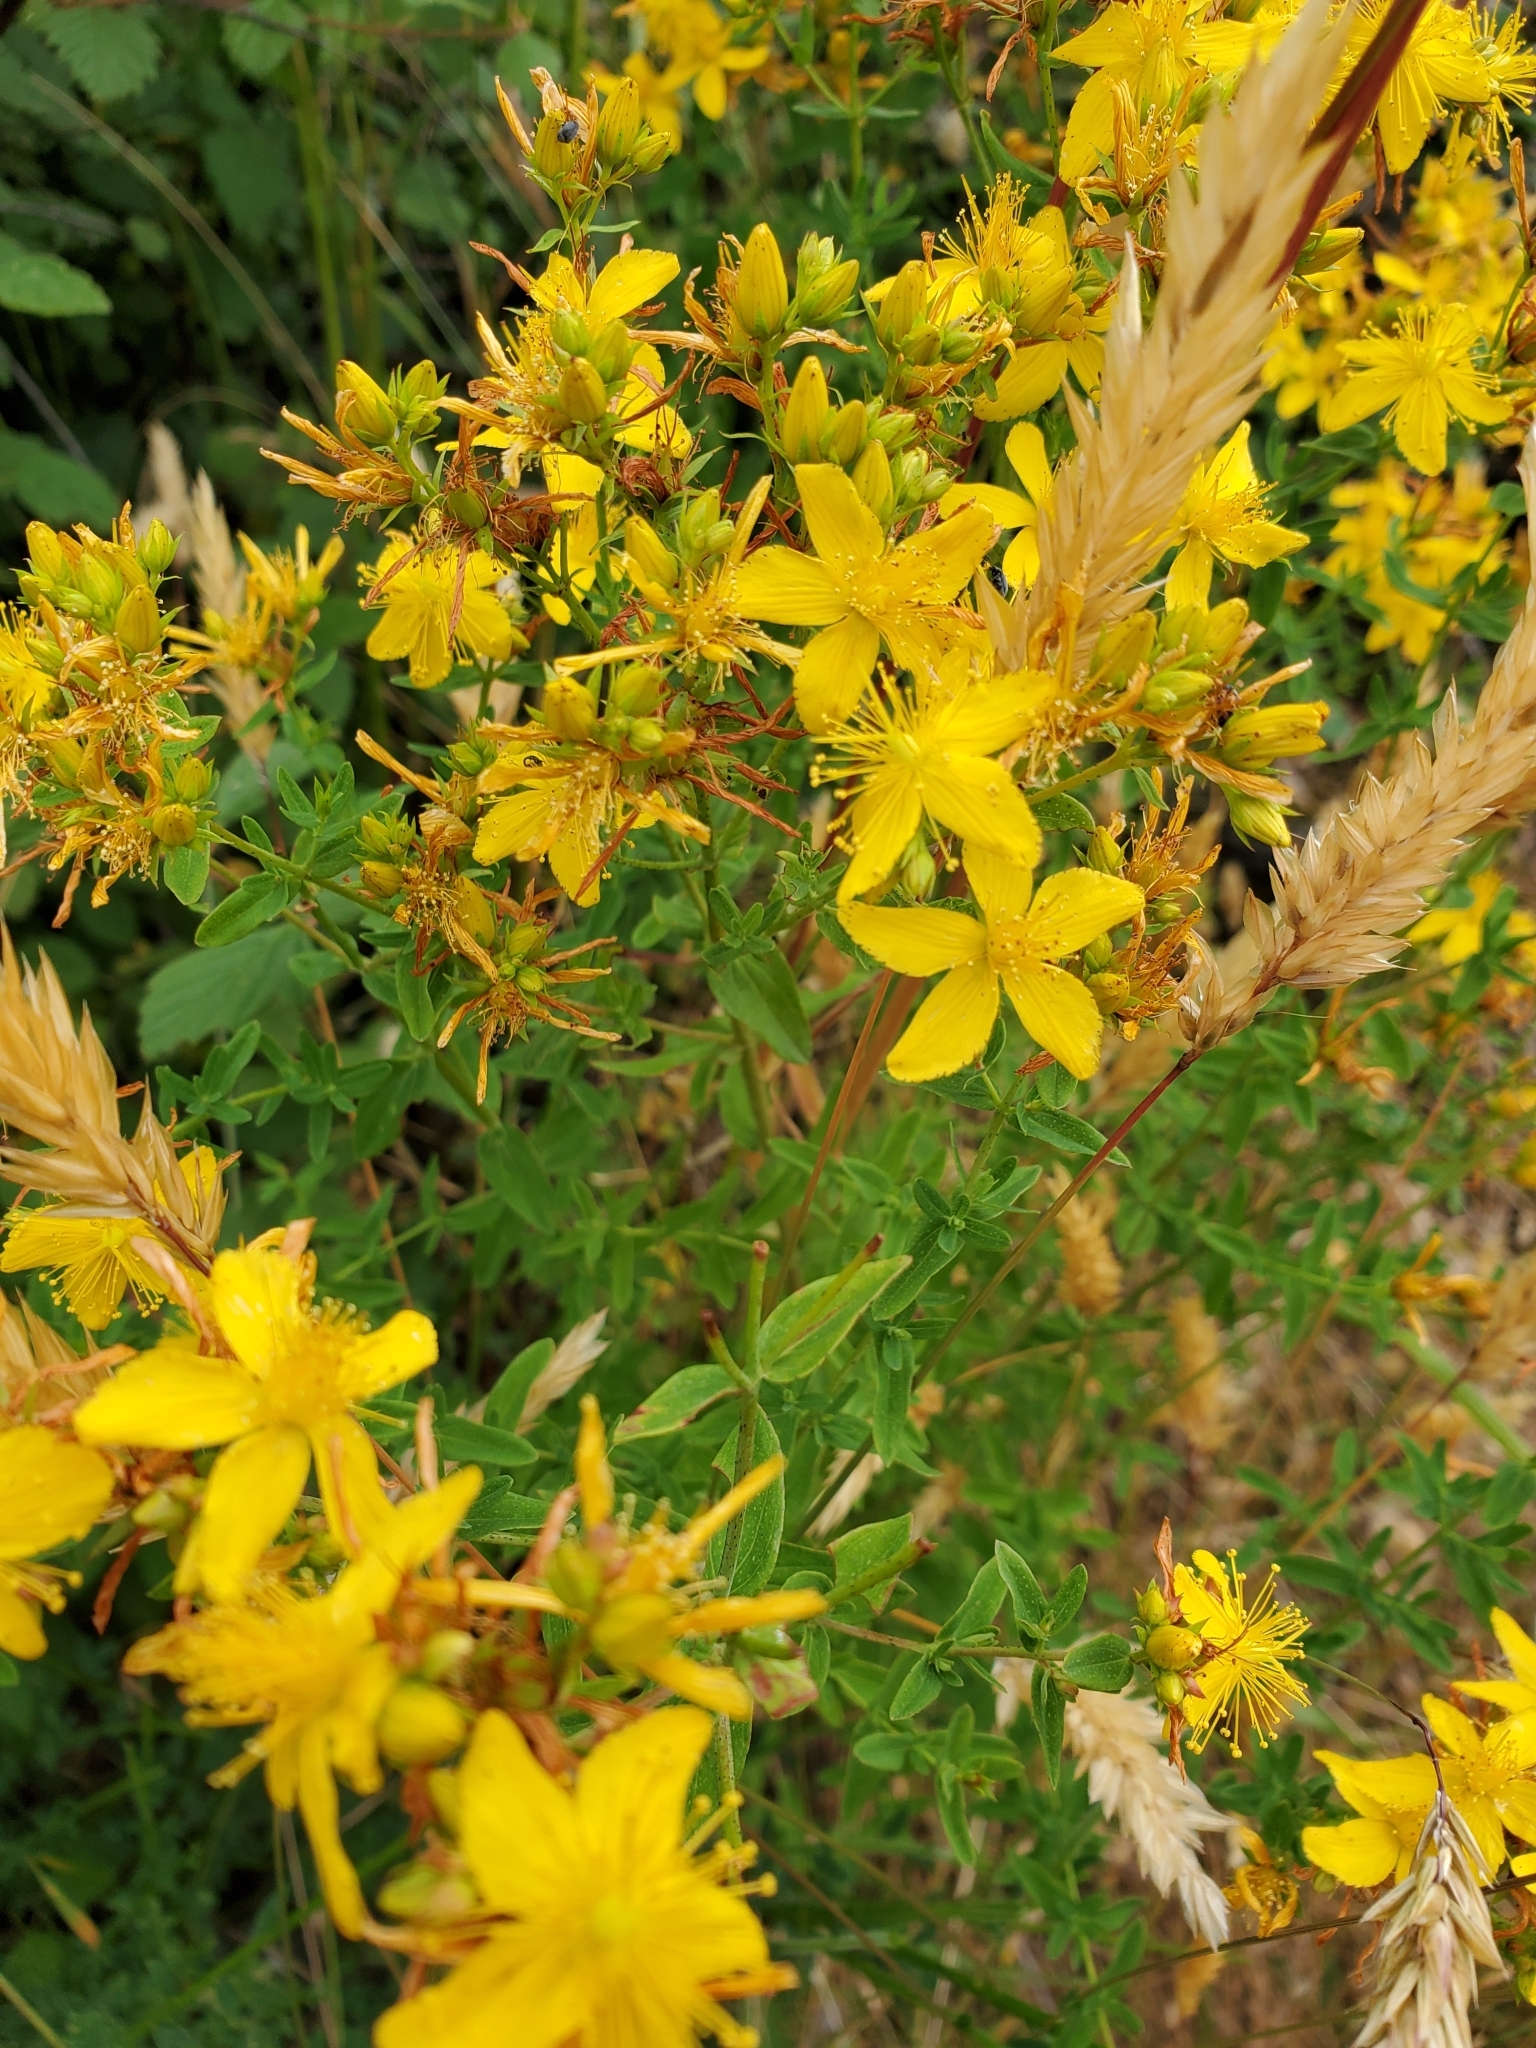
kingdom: Plantae
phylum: Tracheophyta
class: Magnoliopsida
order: Malpighiales
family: Hypericaceae
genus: Hypericum
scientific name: Hypericum perforatum
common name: Common st. johnswort
